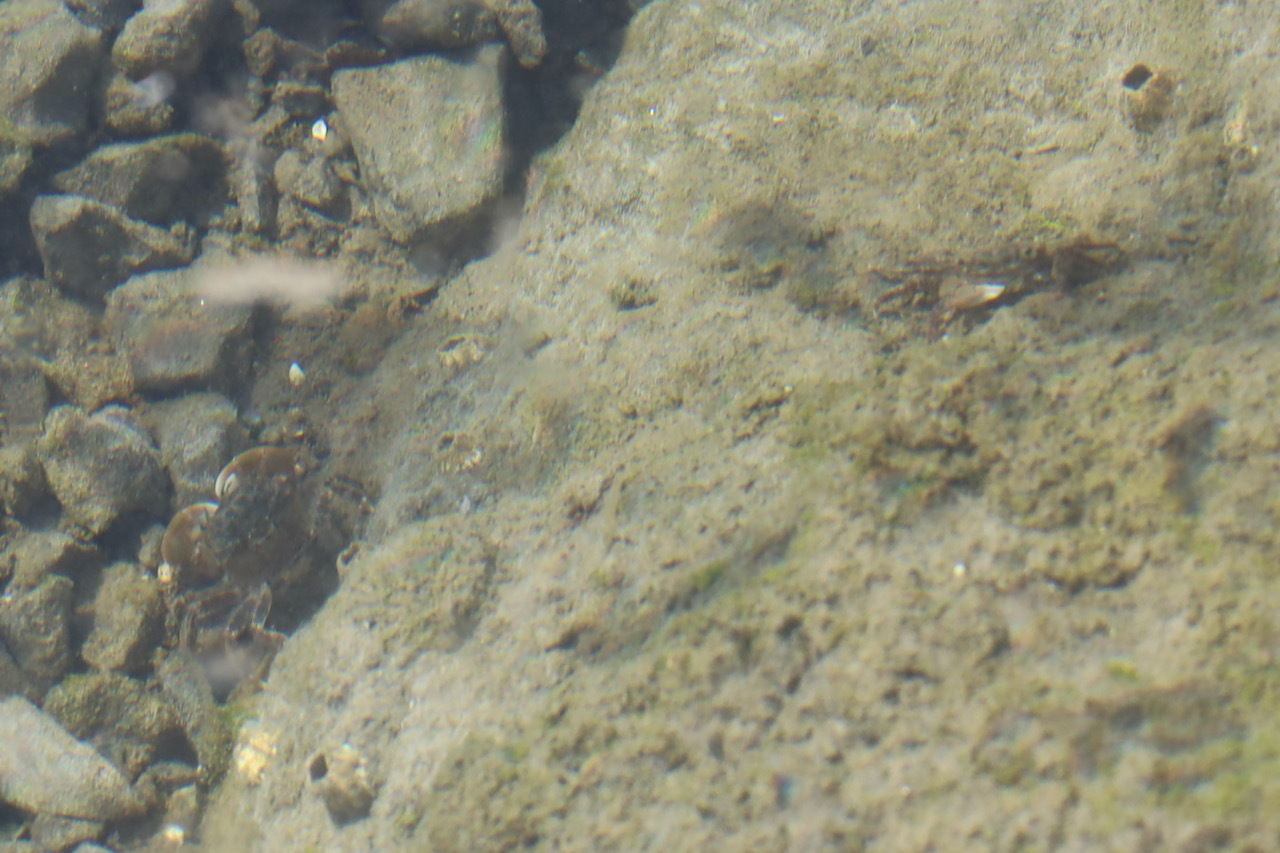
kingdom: Animalia
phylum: Arthropoda
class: Malacostraca
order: Decapoda
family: Varunidae
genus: Hemigrapsus
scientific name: Hemigrapsus oregonensis
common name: Yellow shore crab
